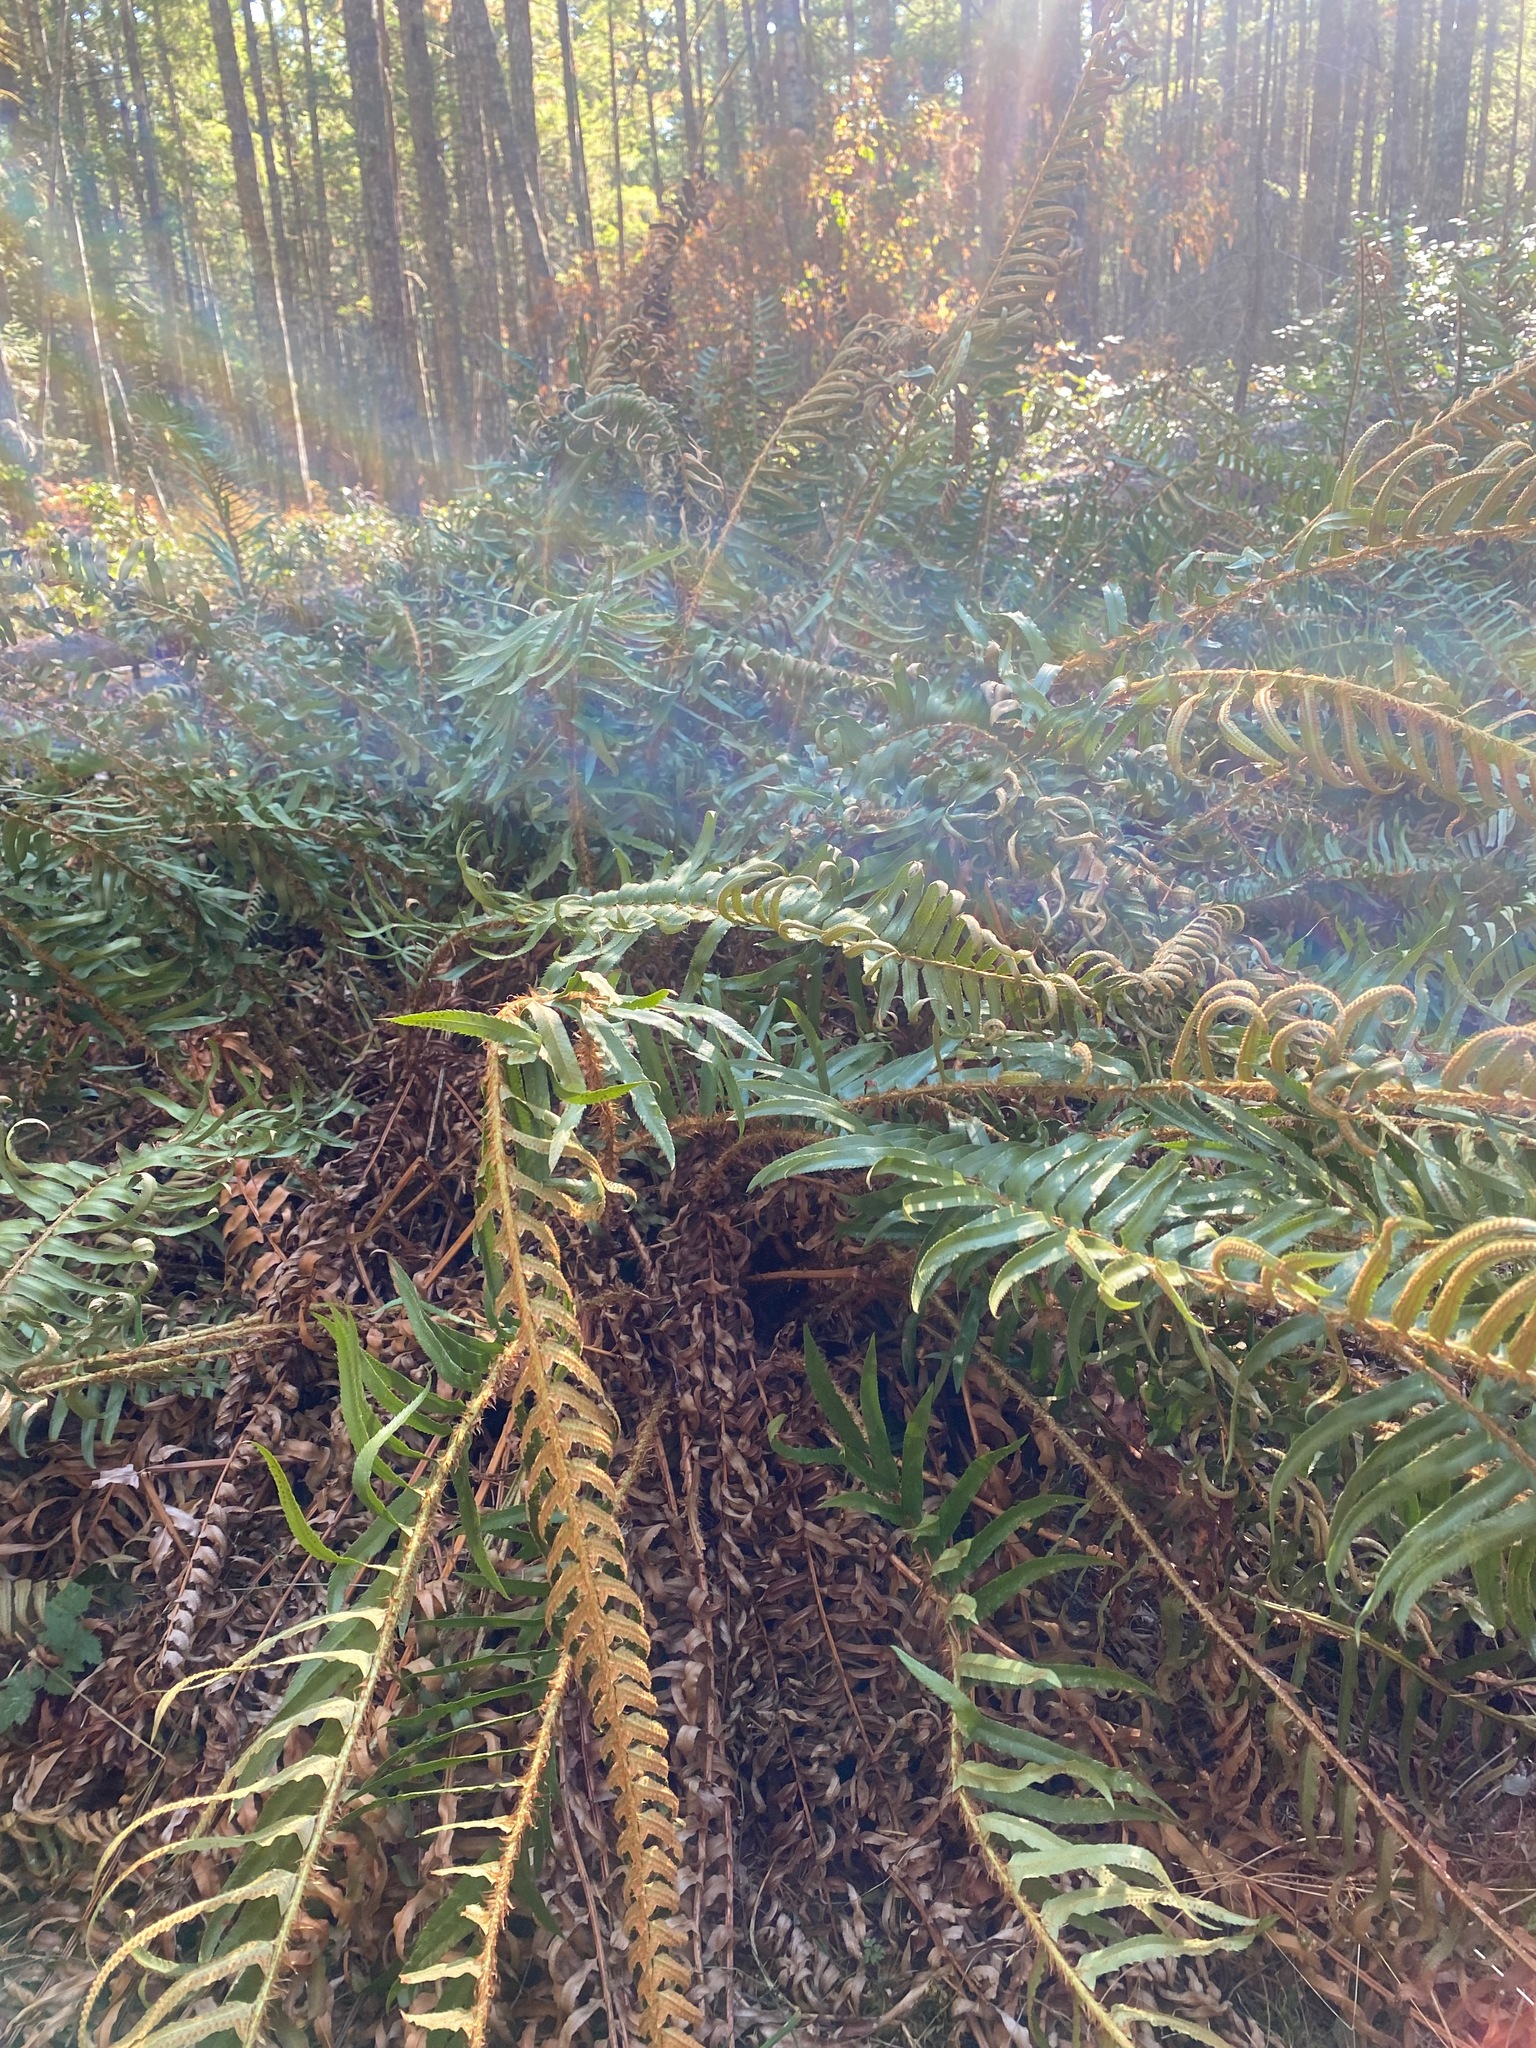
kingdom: Plantae
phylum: Tracheophyta
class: Polypodiopsida
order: Polypodiales
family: Dryopteridaceae
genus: Polystichum
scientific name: Polystichum munitum
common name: Western sword-fern
